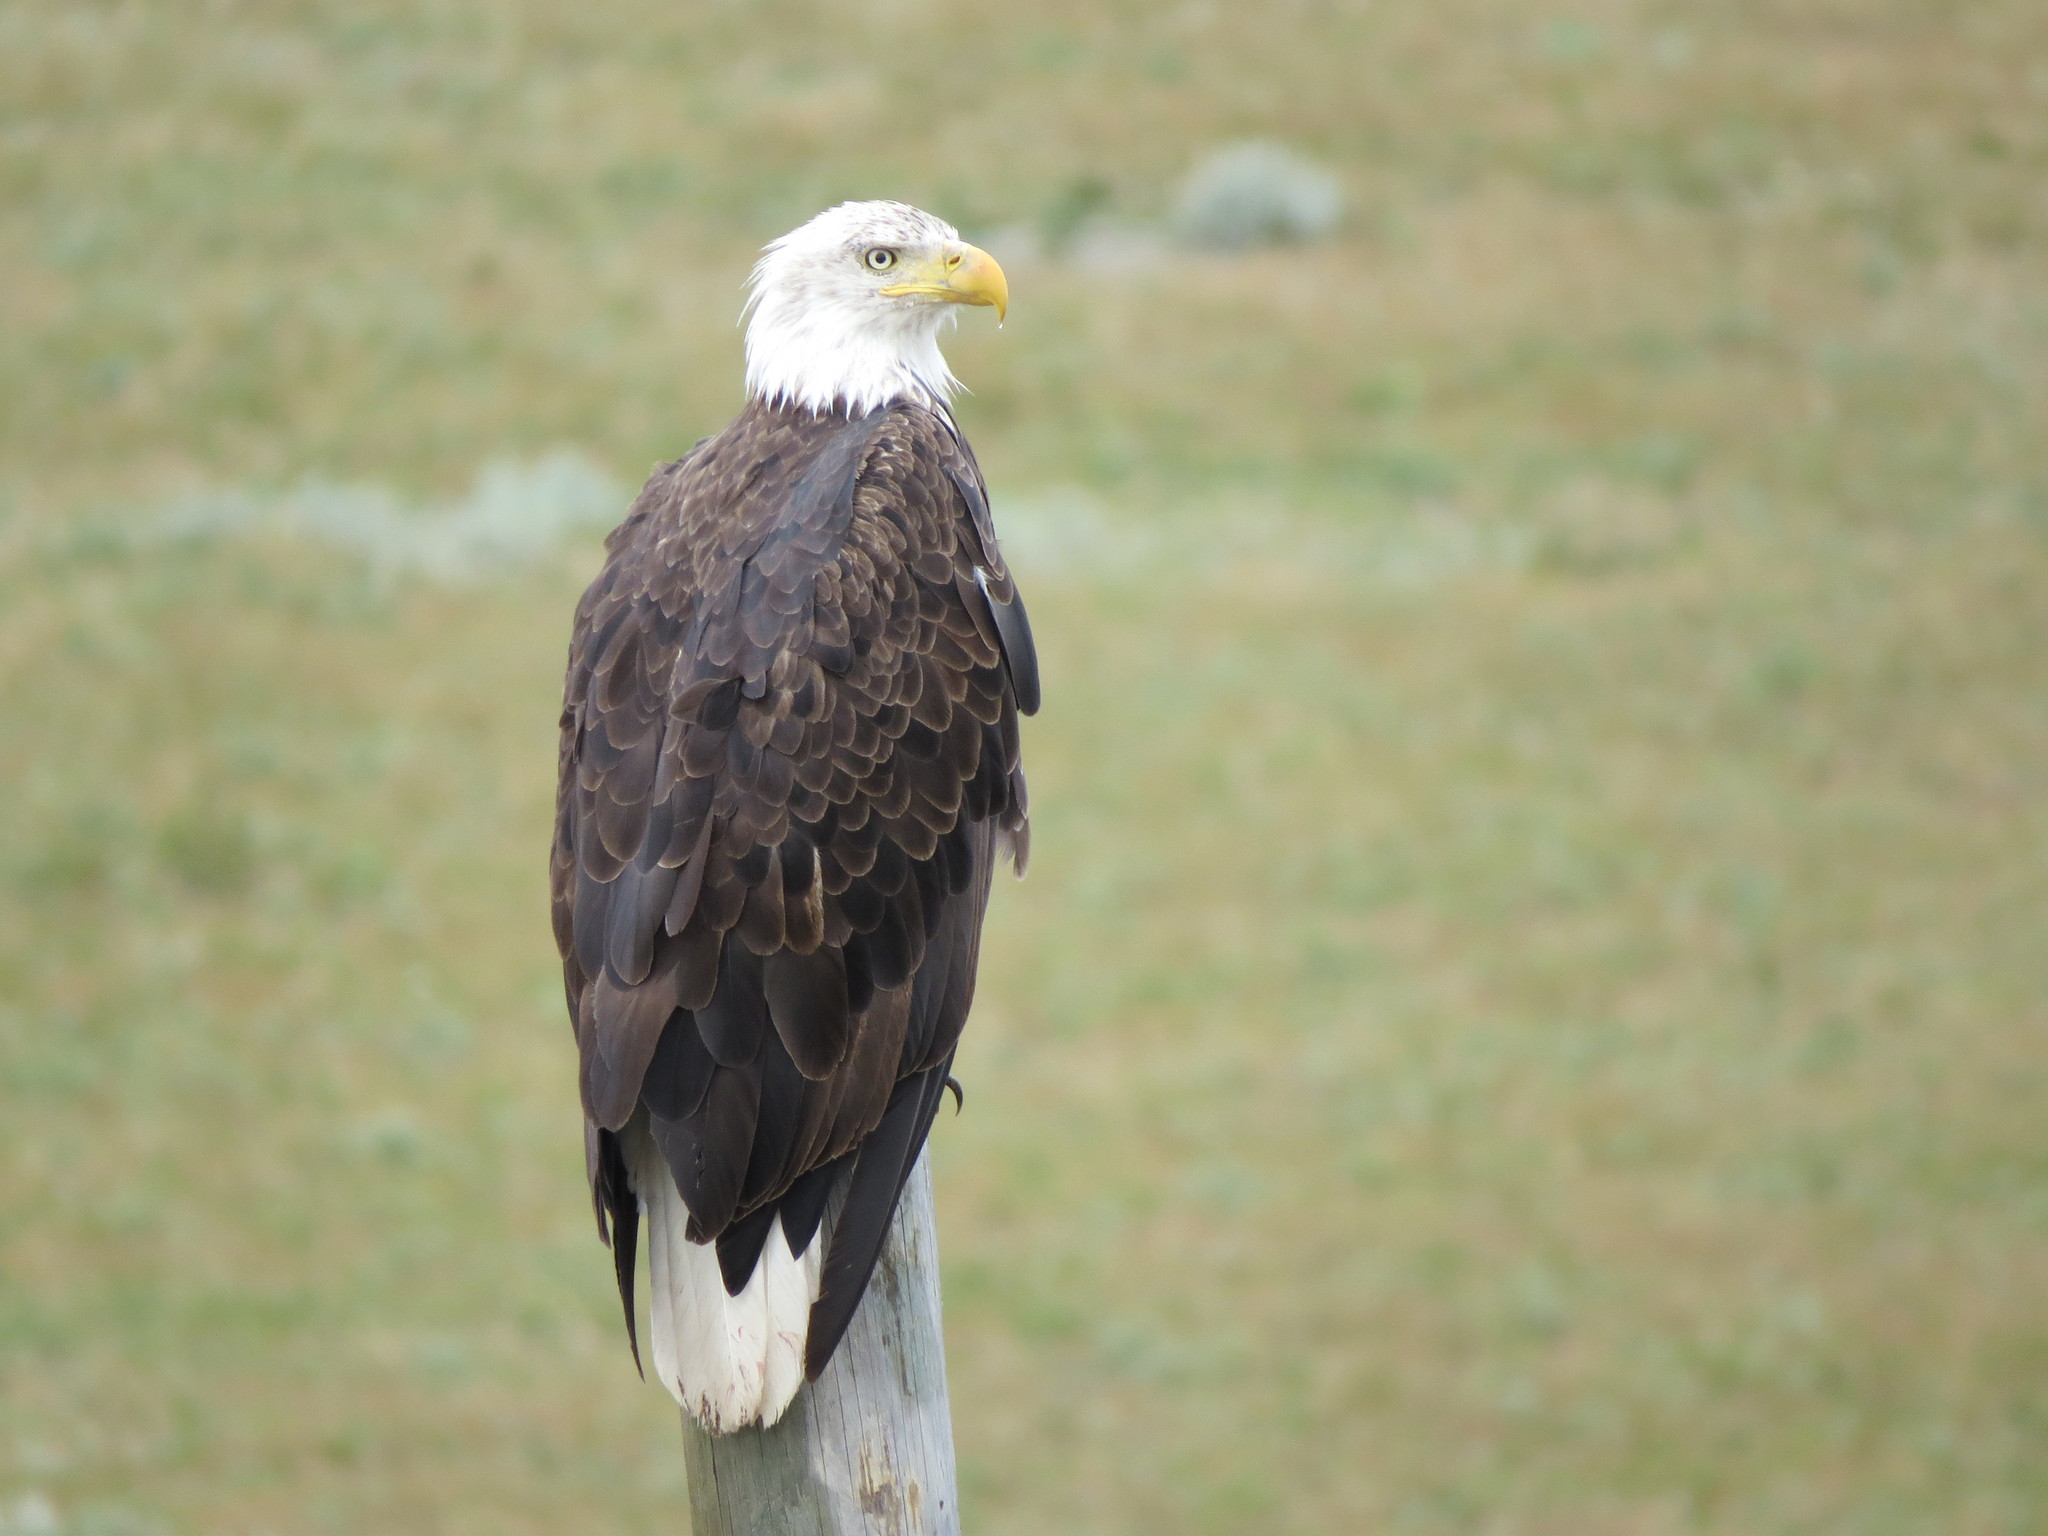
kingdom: Animalia
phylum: Chordata
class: Aves
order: Accipitriformes
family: Accipitridae
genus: Haliaeetus
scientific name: Haliaeetus leucocephalus
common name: Bald eagle
